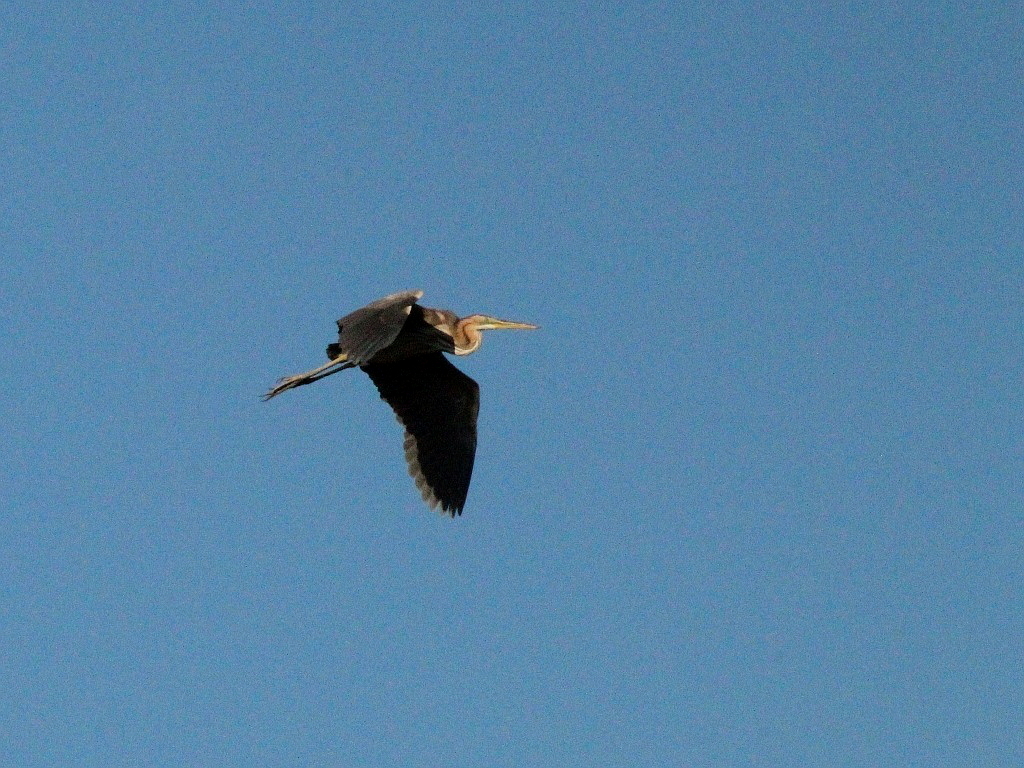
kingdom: Animalia
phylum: Chordata
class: Aves
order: Pelecaniformes
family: Ardeidae
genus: Ardea
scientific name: Ardea purpurea
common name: Purple heron
